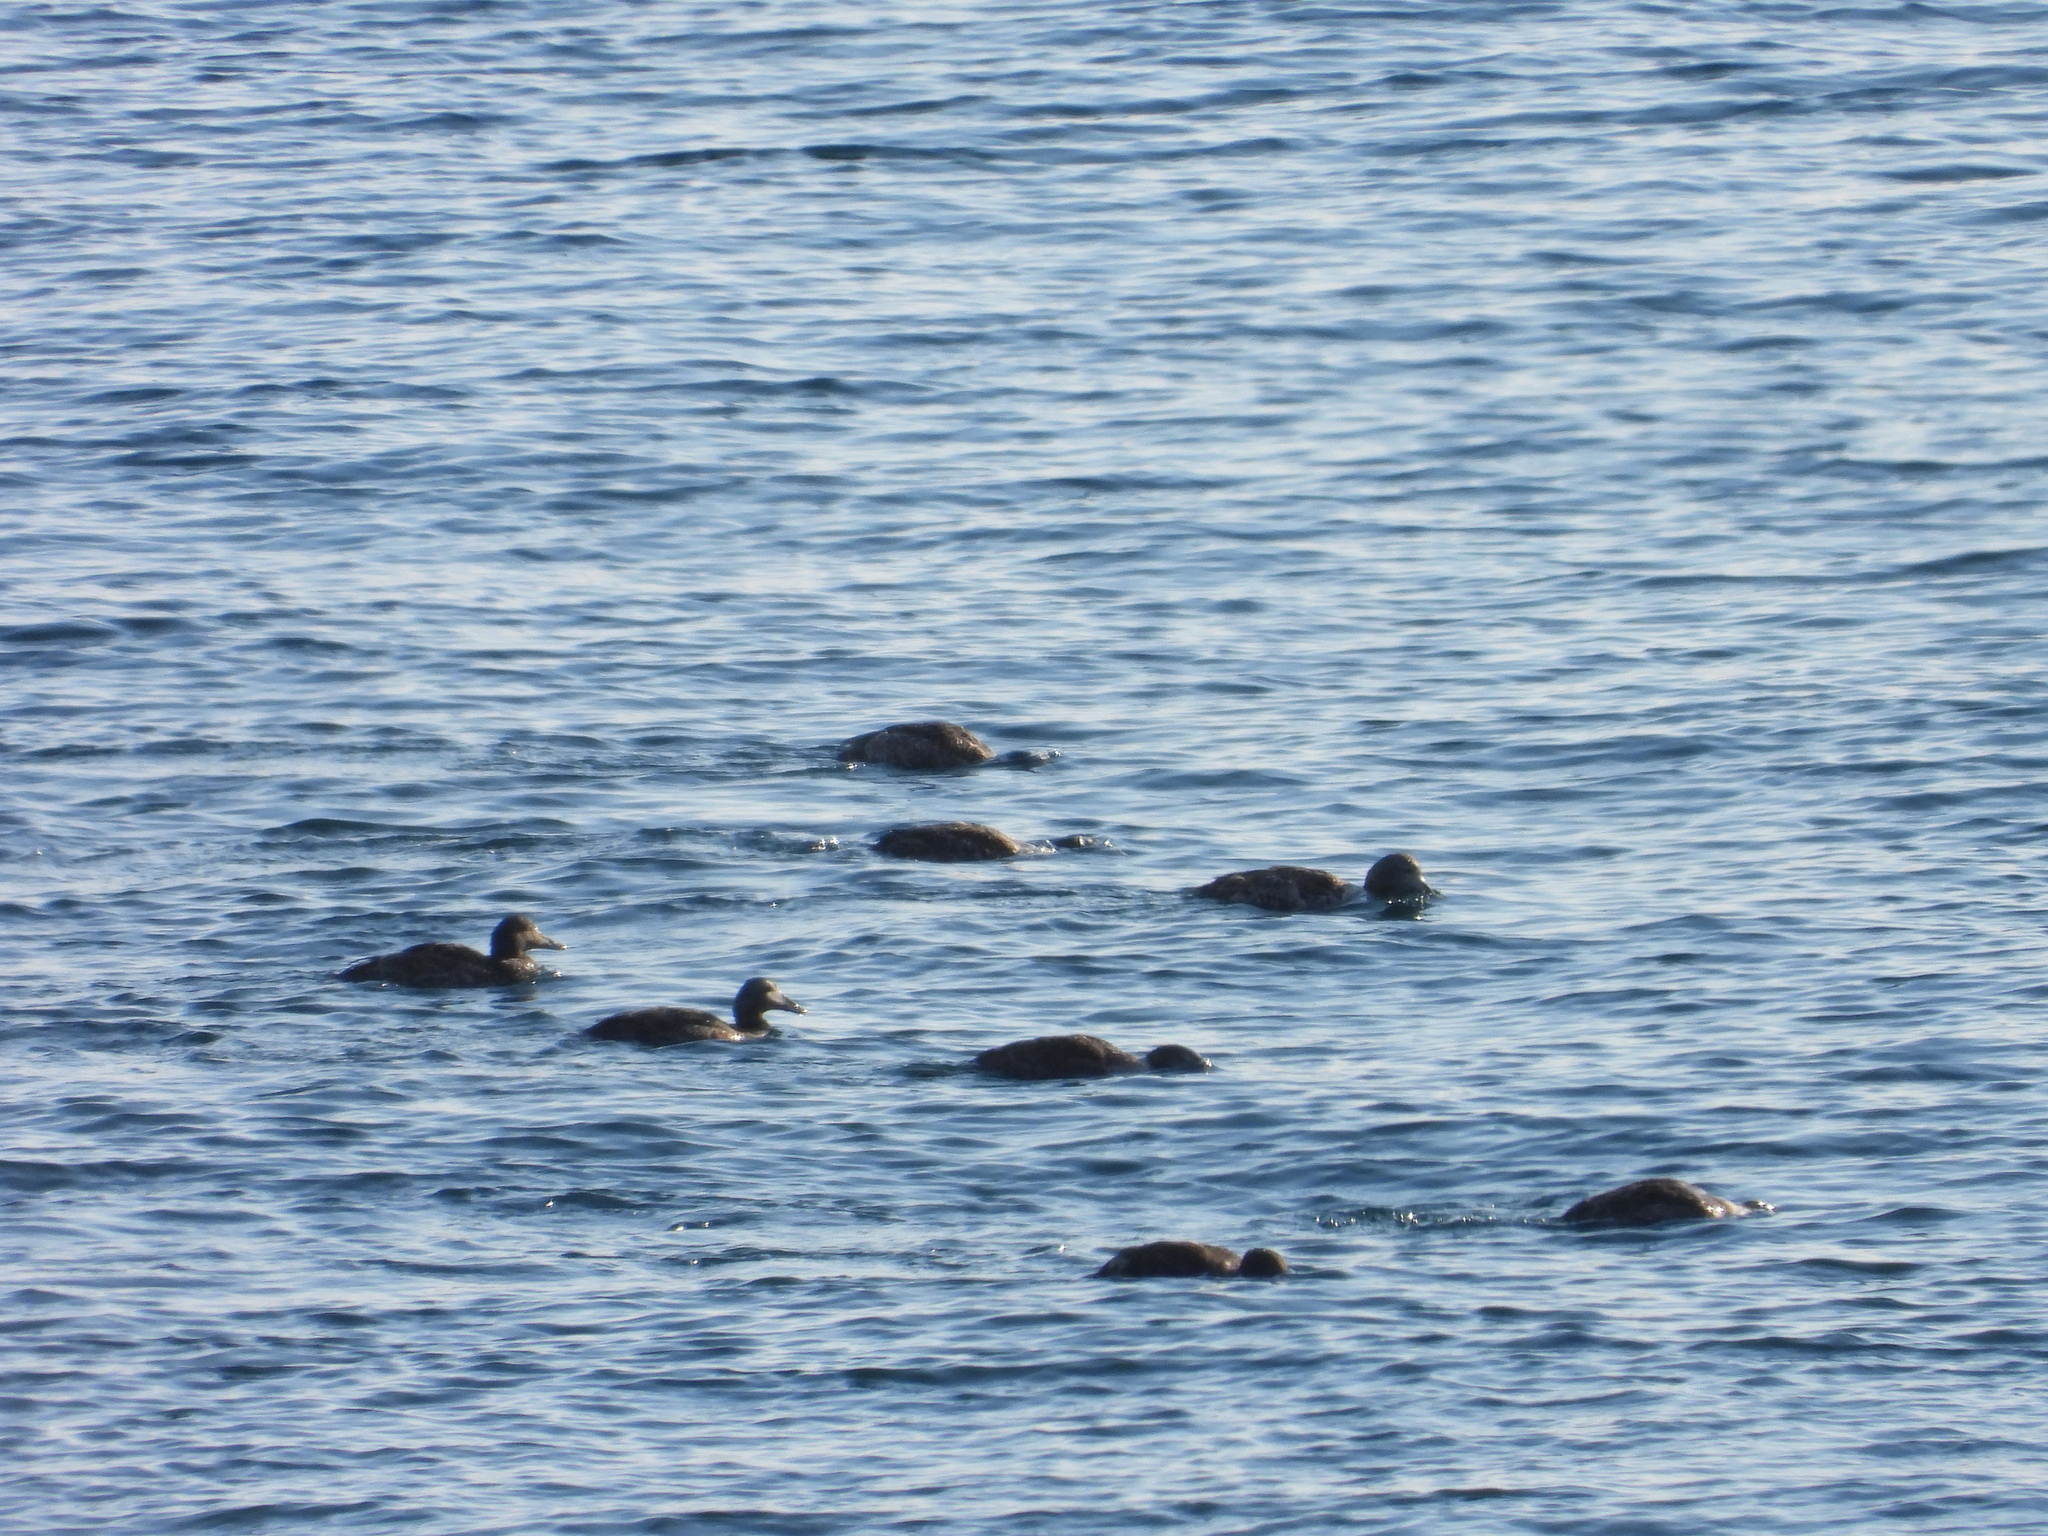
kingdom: Animalia
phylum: Chordata
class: Aves
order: Anseriformes
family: Anatidae
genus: Somateria
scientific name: Somateria mollissima
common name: Common eider
